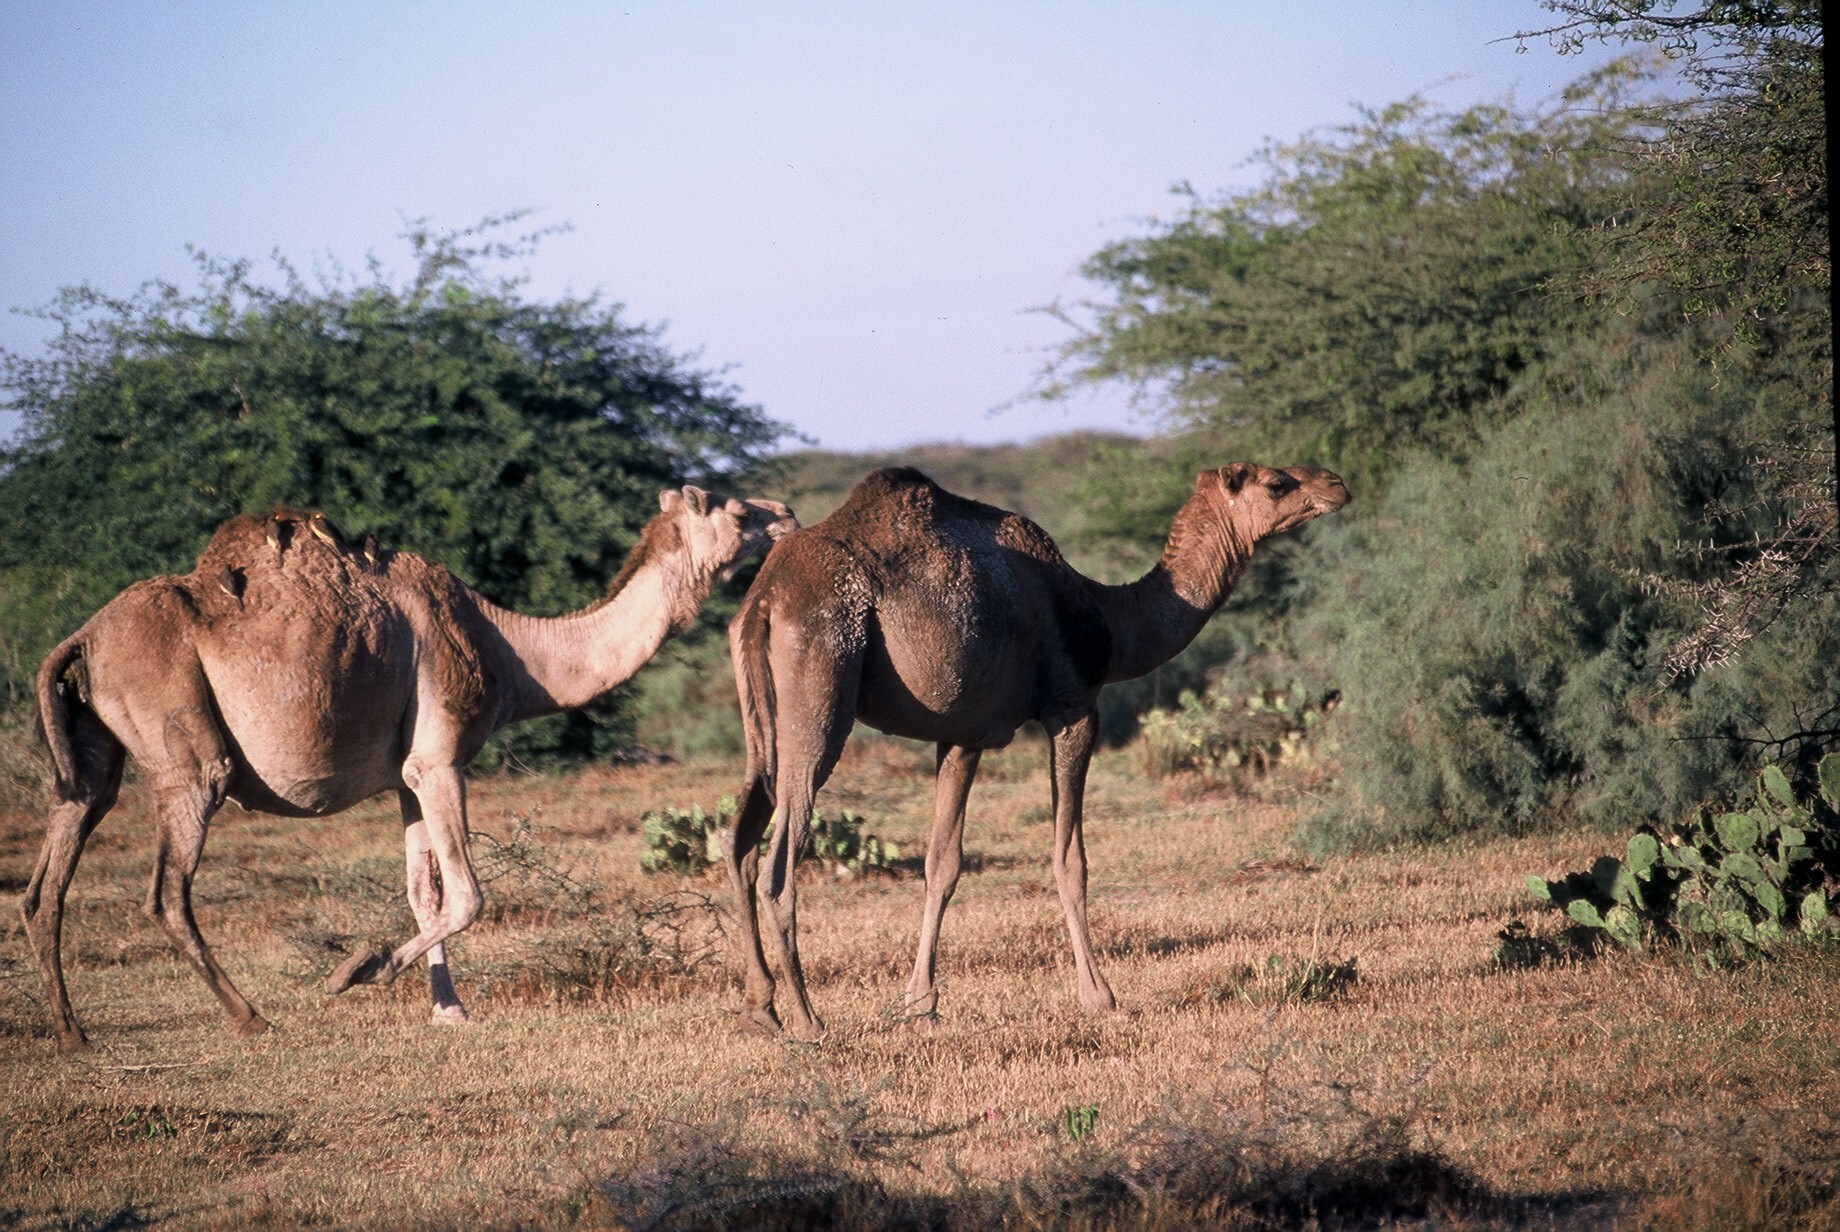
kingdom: Animalia
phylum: Chordata
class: Aves
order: Passeriformes
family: Buphagidae
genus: Buphagus
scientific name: Buphagus africanus
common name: Yellow-billed oxpecker
